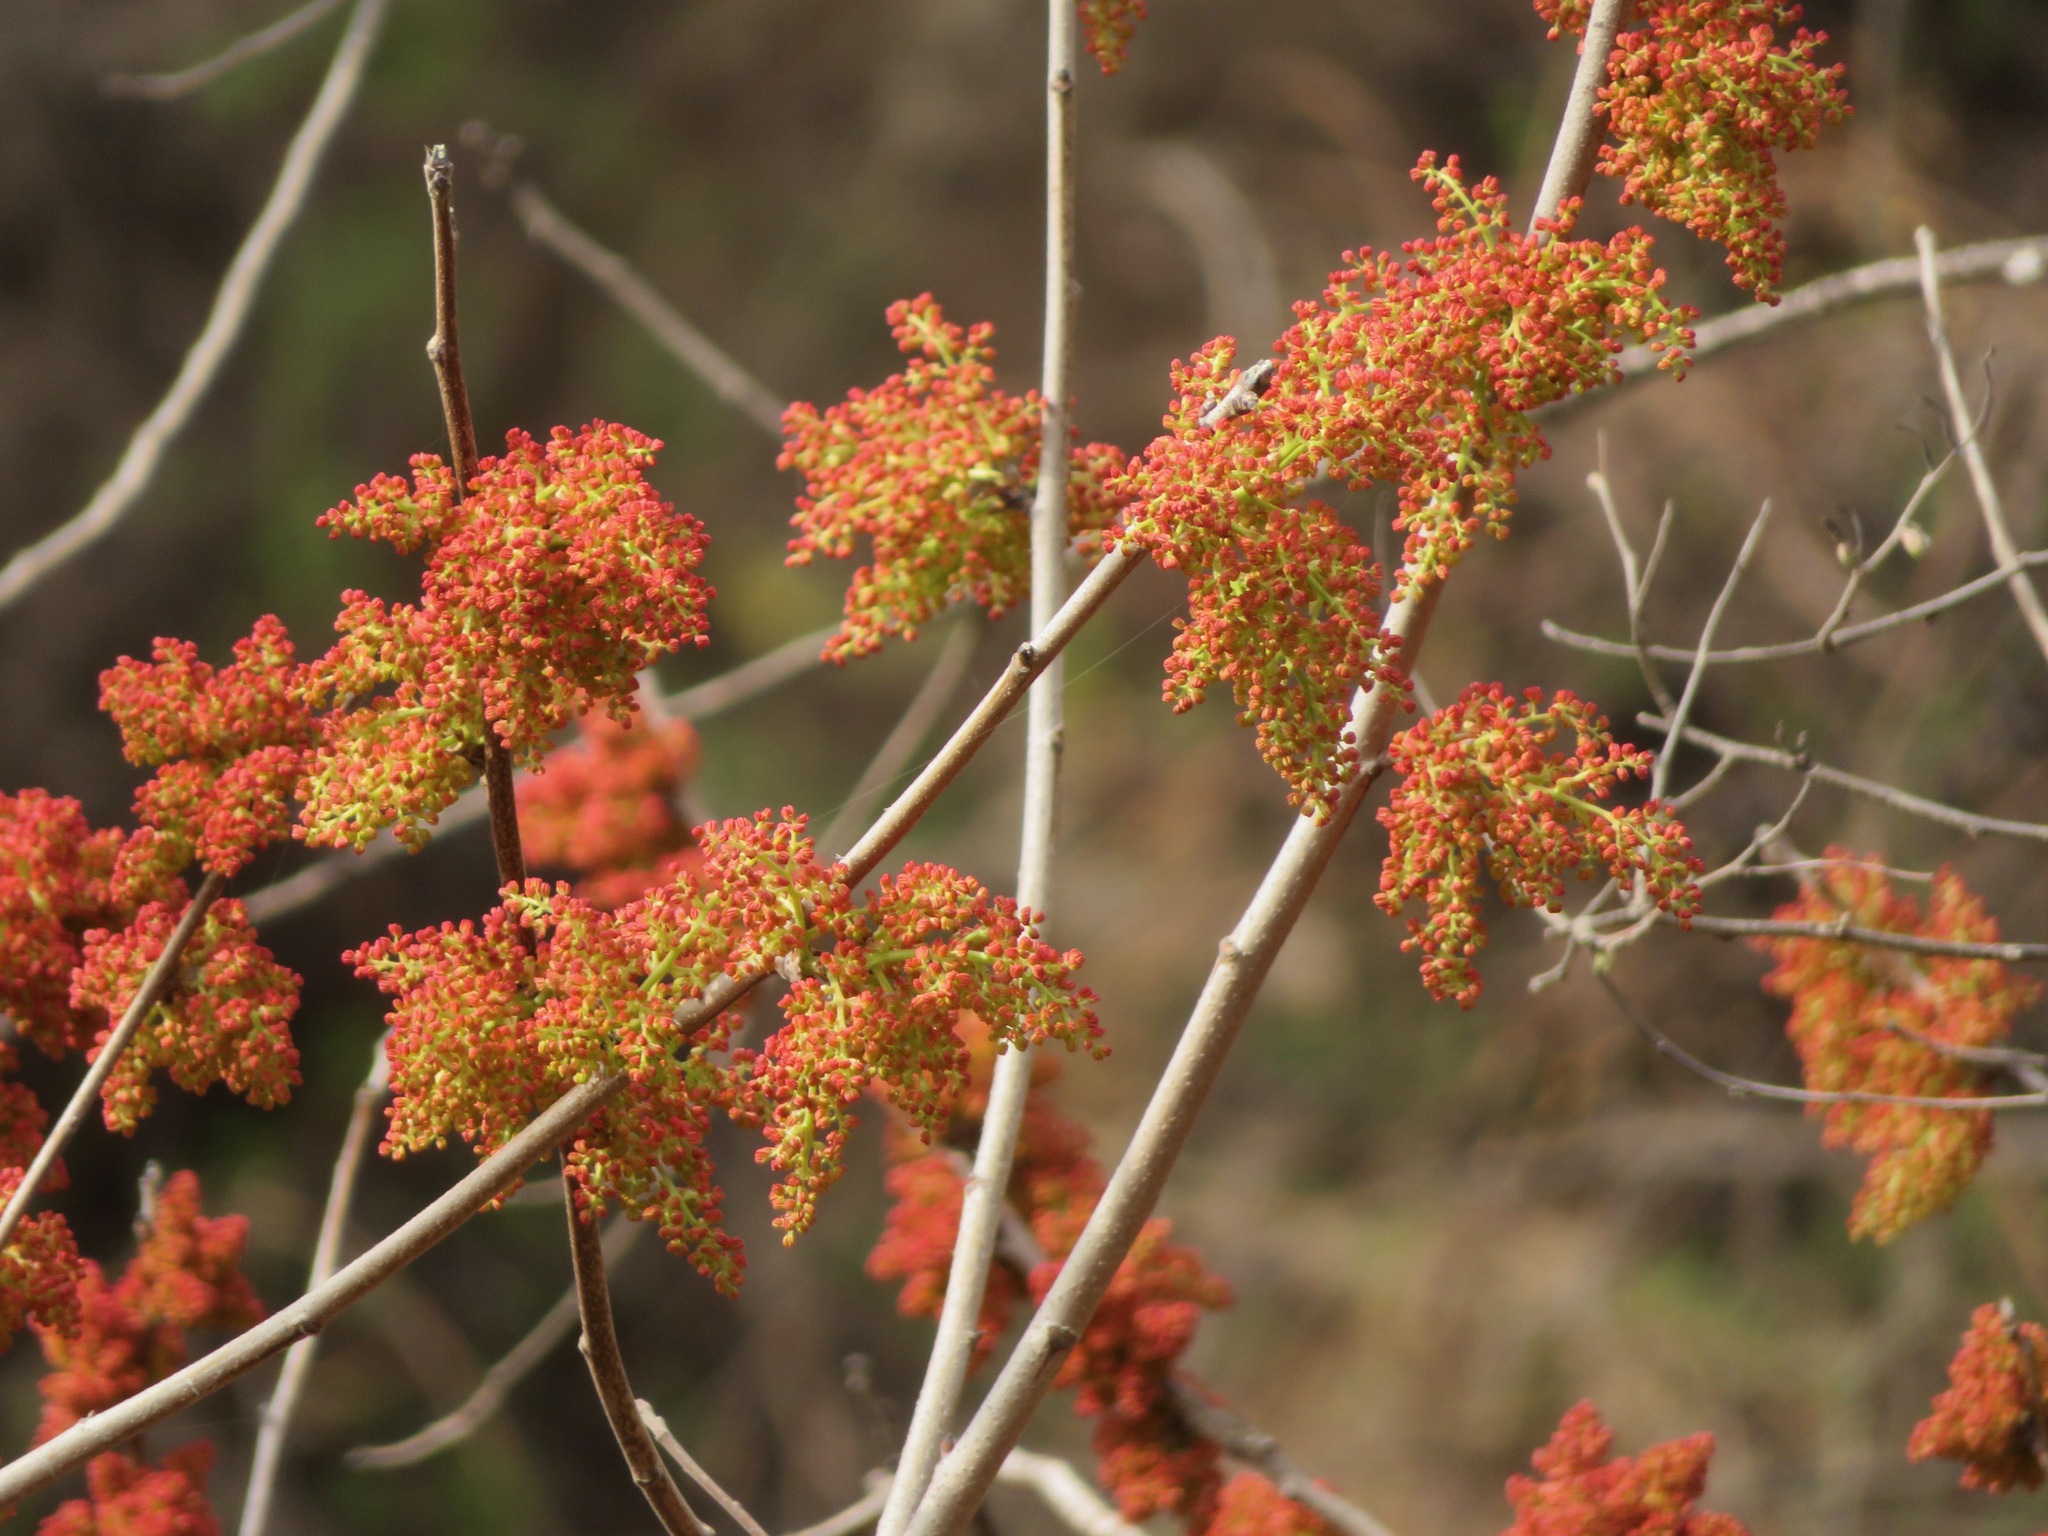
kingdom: Plantae
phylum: Tracheophyta
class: Magnoliopsida
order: Sapindales
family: Anacardiaceae
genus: Pistacia
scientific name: Pistacia chinensis
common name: Chinese pistache
